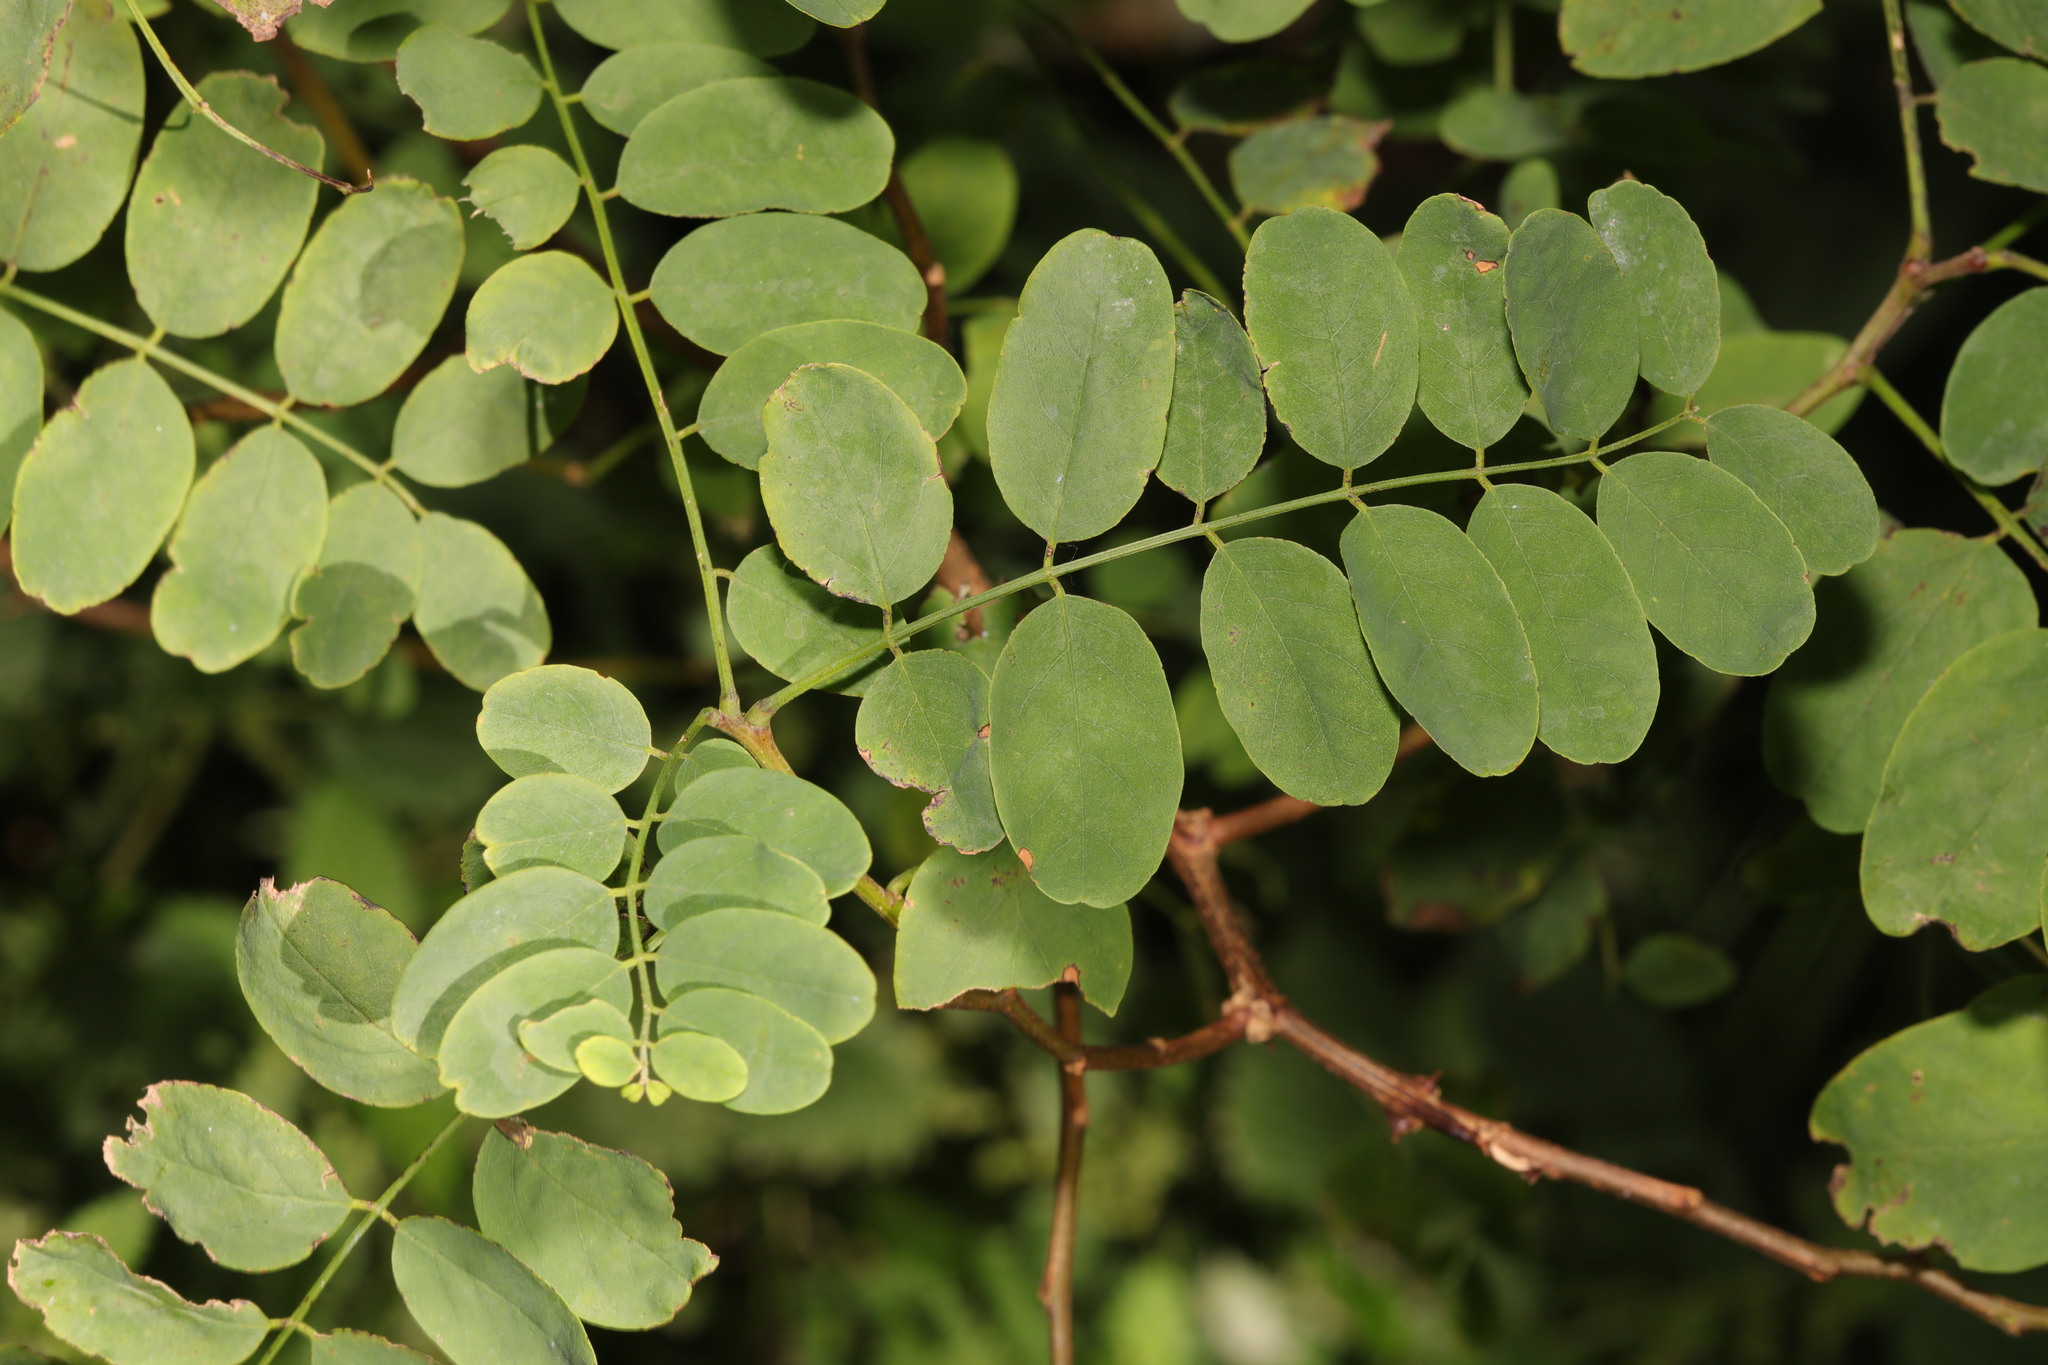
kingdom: Plantae
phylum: Tracheophyta
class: Magnoliopsida
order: Fabales
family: Fabaceae
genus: Robinia
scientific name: Robinia pseudoacacia
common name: Black locust
